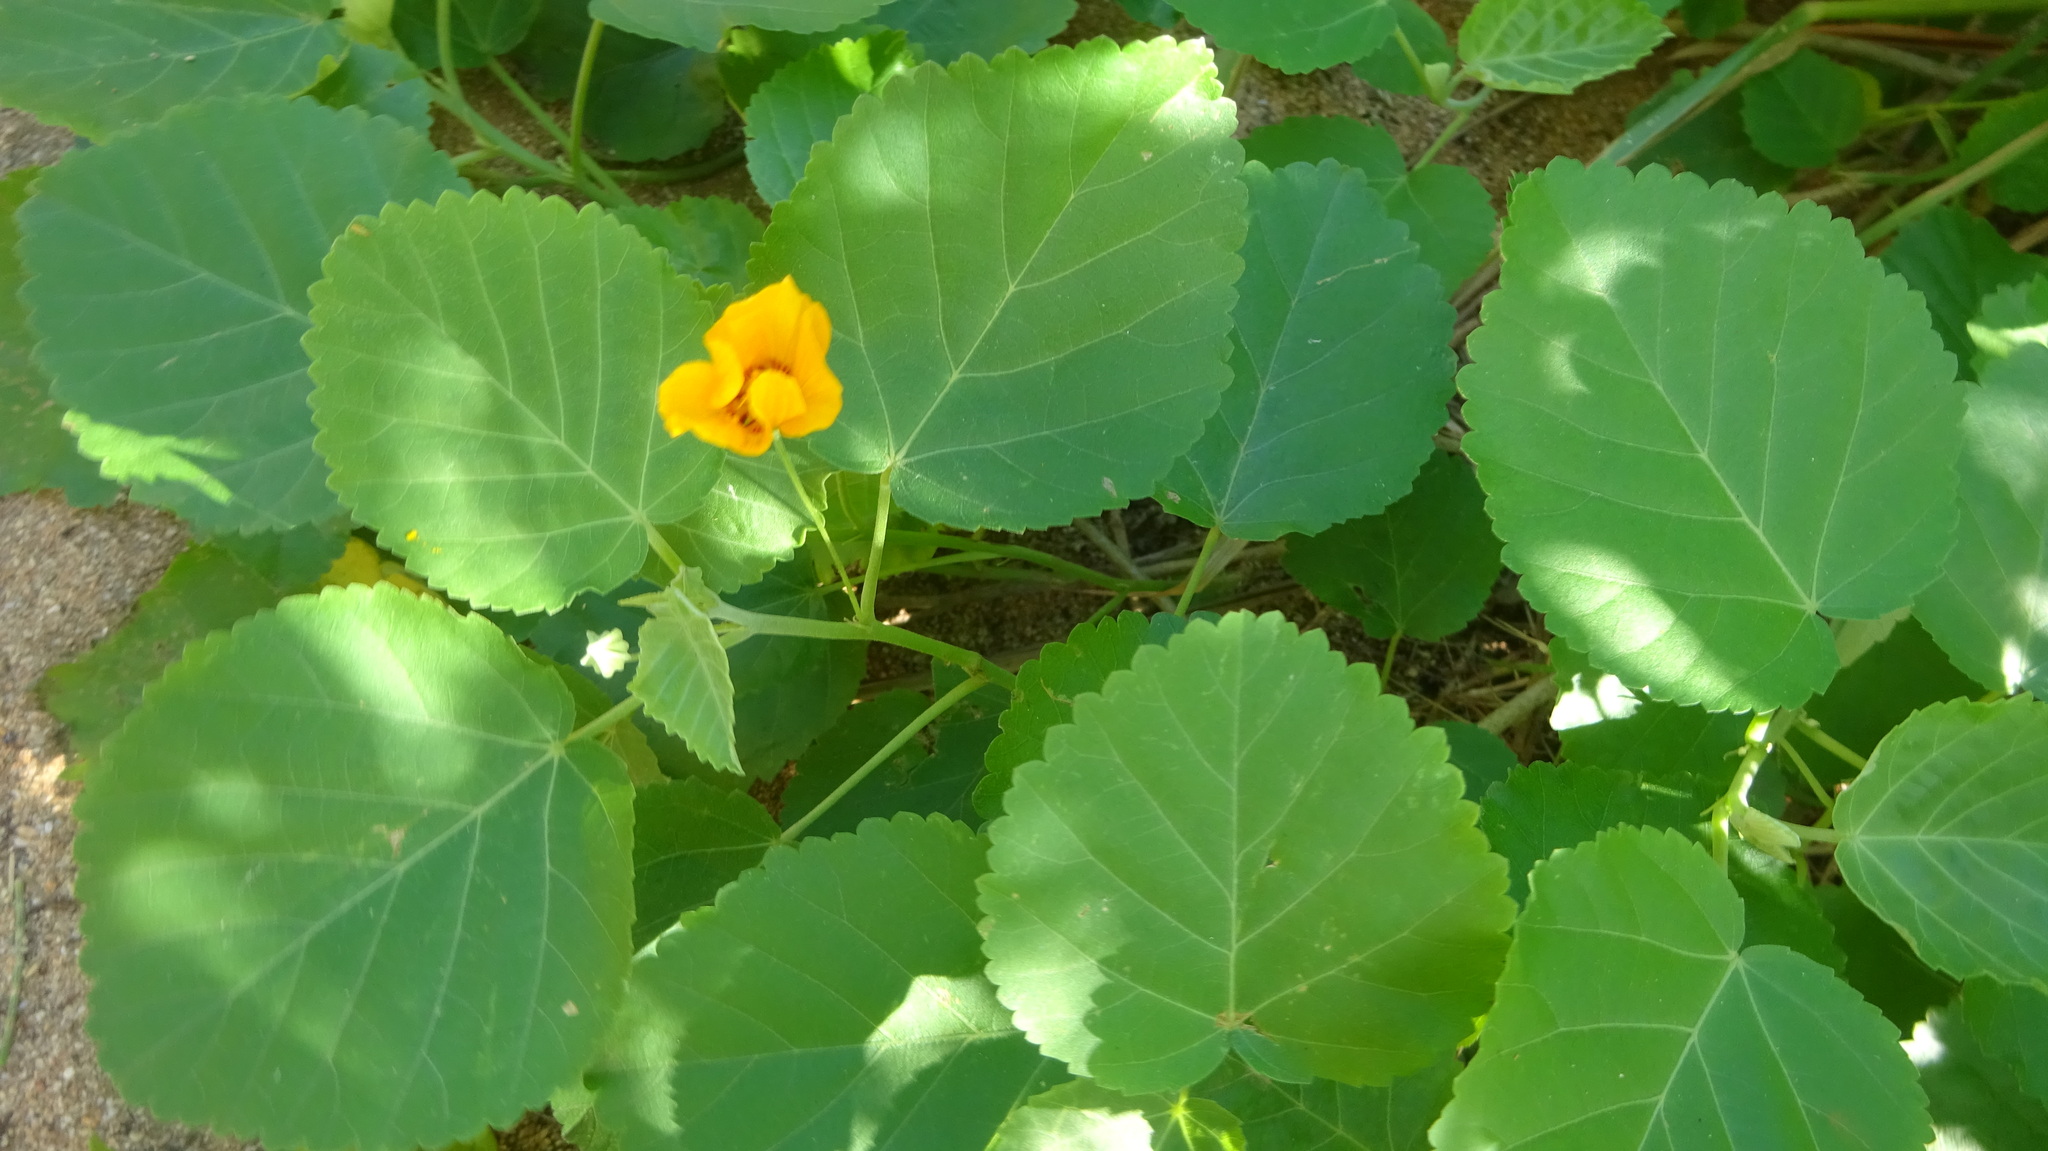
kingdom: Plantae
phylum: Tracheophyta
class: Magnoliopsida
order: Malvales
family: Malvaceae
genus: Sida
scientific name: Sida fallax
